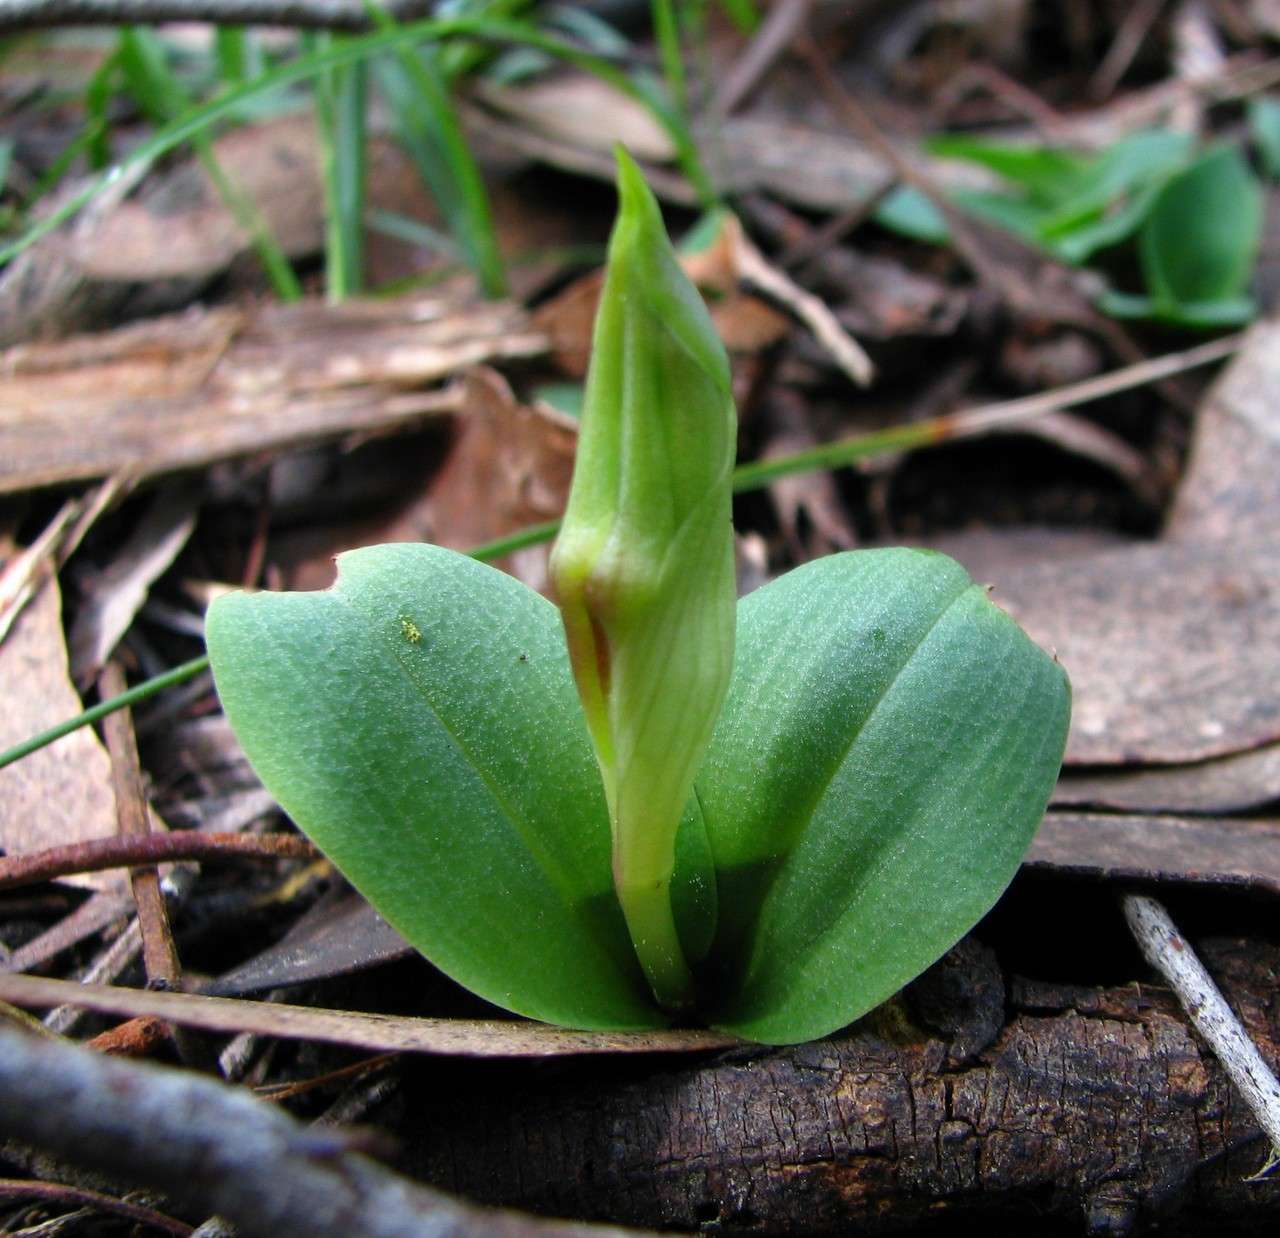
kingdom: Plantae
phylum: Tracheophyta
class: Liliopsida
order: Asparagales
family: Orchidaceae
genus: Chiloglottis
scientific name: Chiloglottis valida
